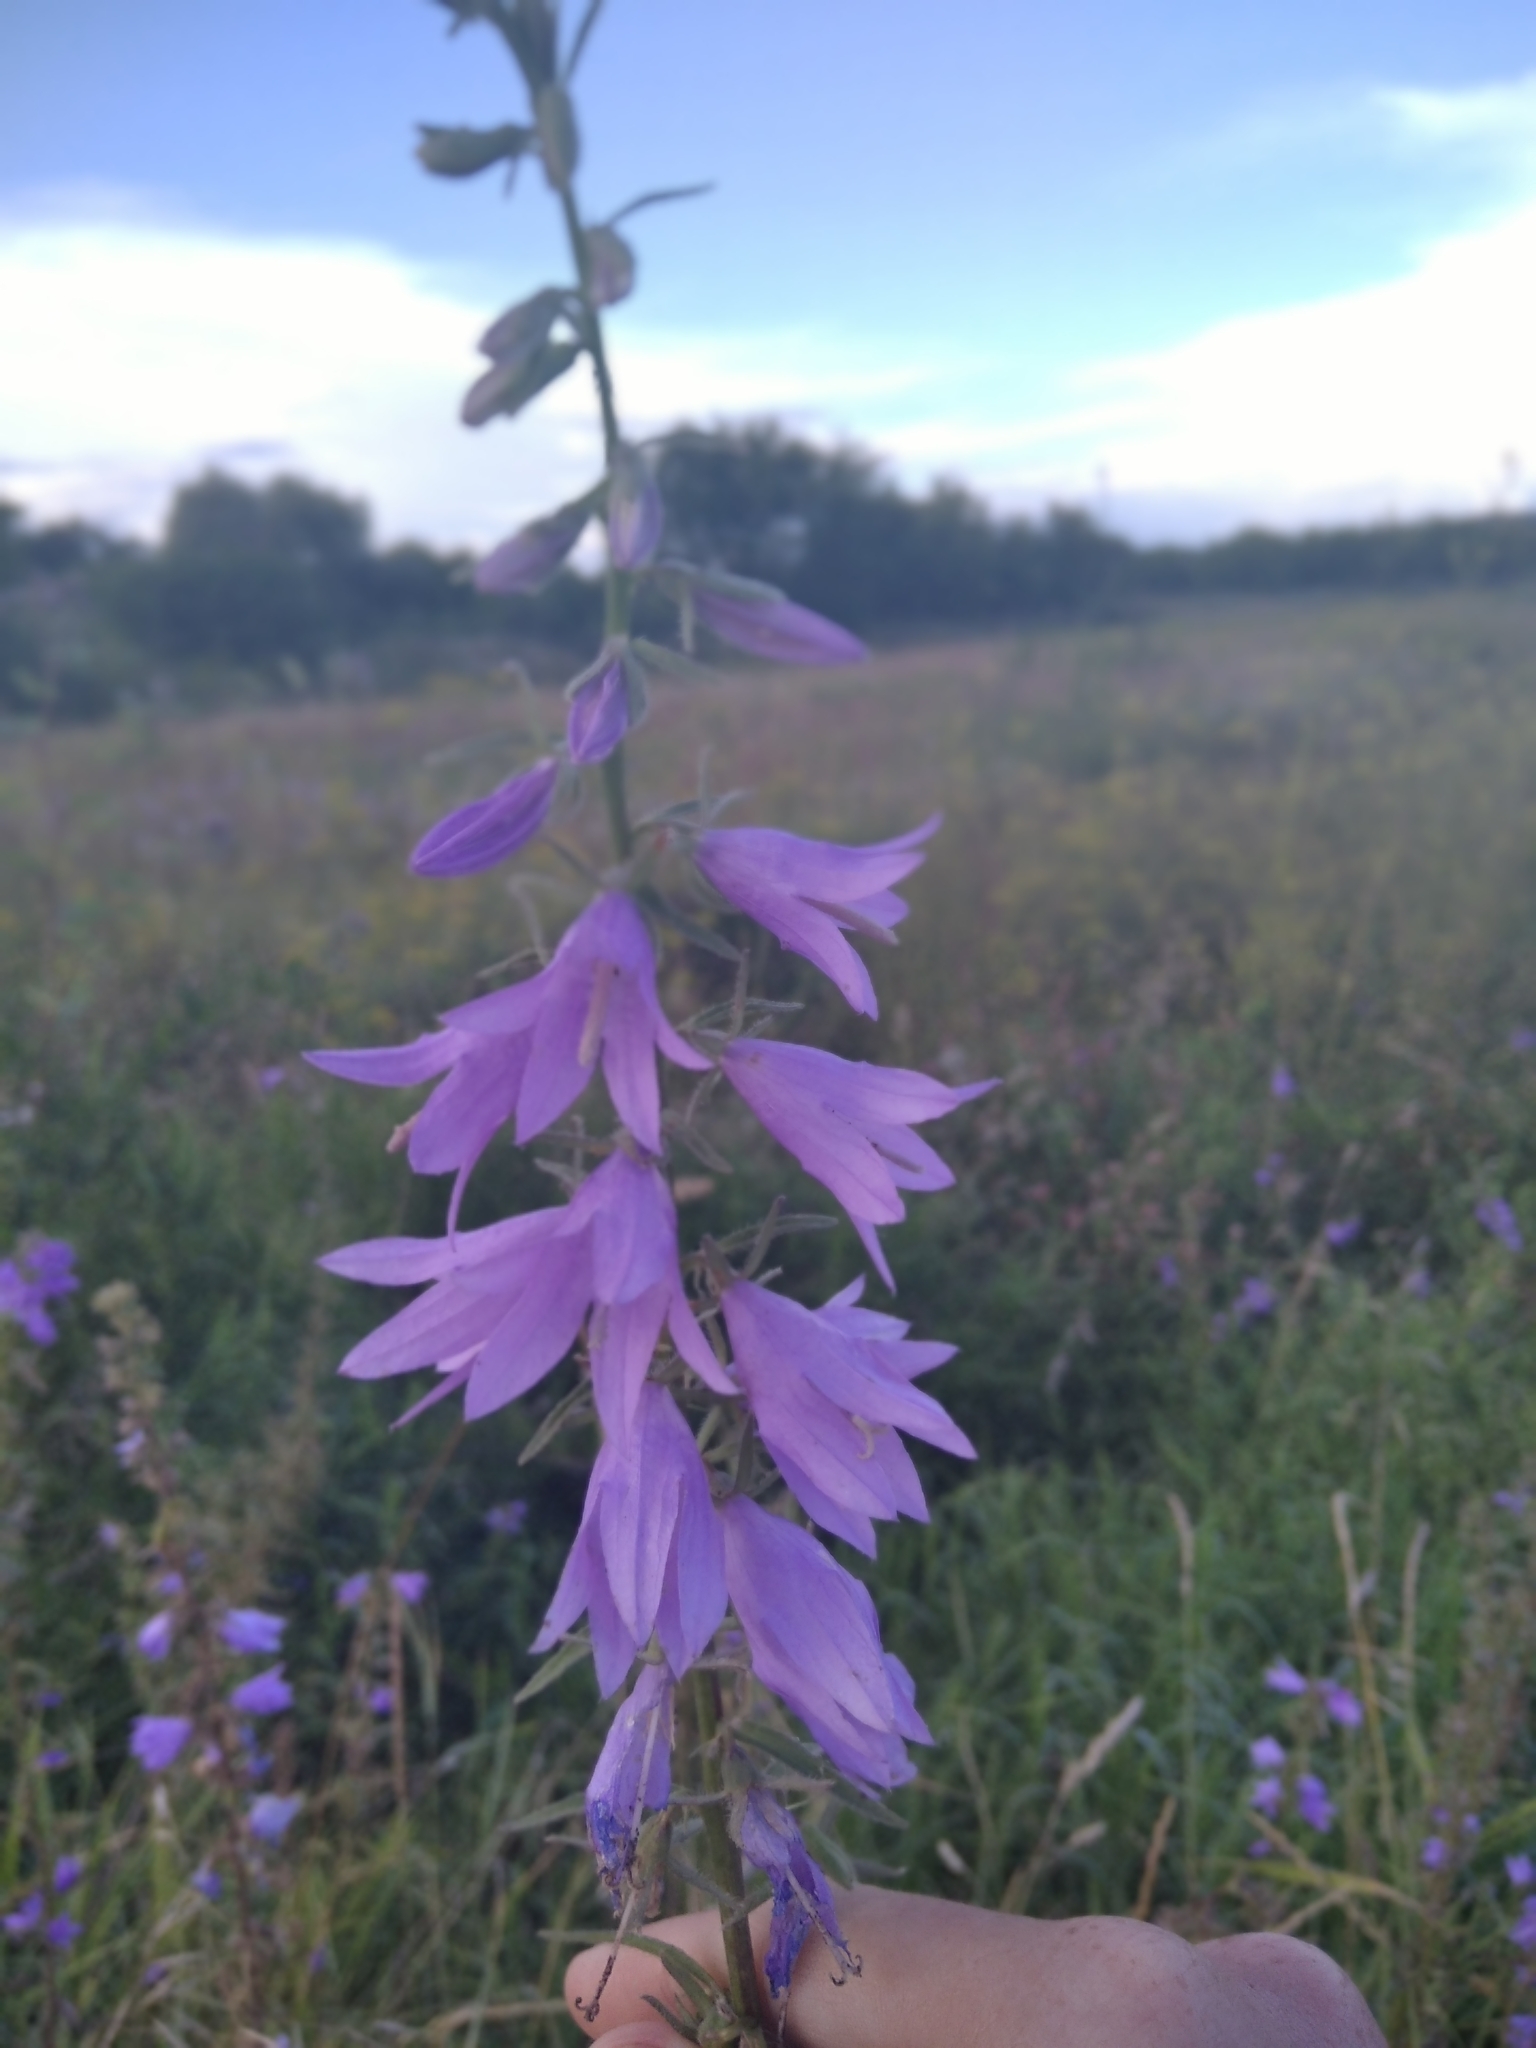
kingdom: Plantae
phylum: Tracheophyta
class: Magnoliopsida
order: Asterales
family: Campanulaceae
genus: Campanula
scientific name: Campanula rapunculoides
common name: Creeping bellflower
